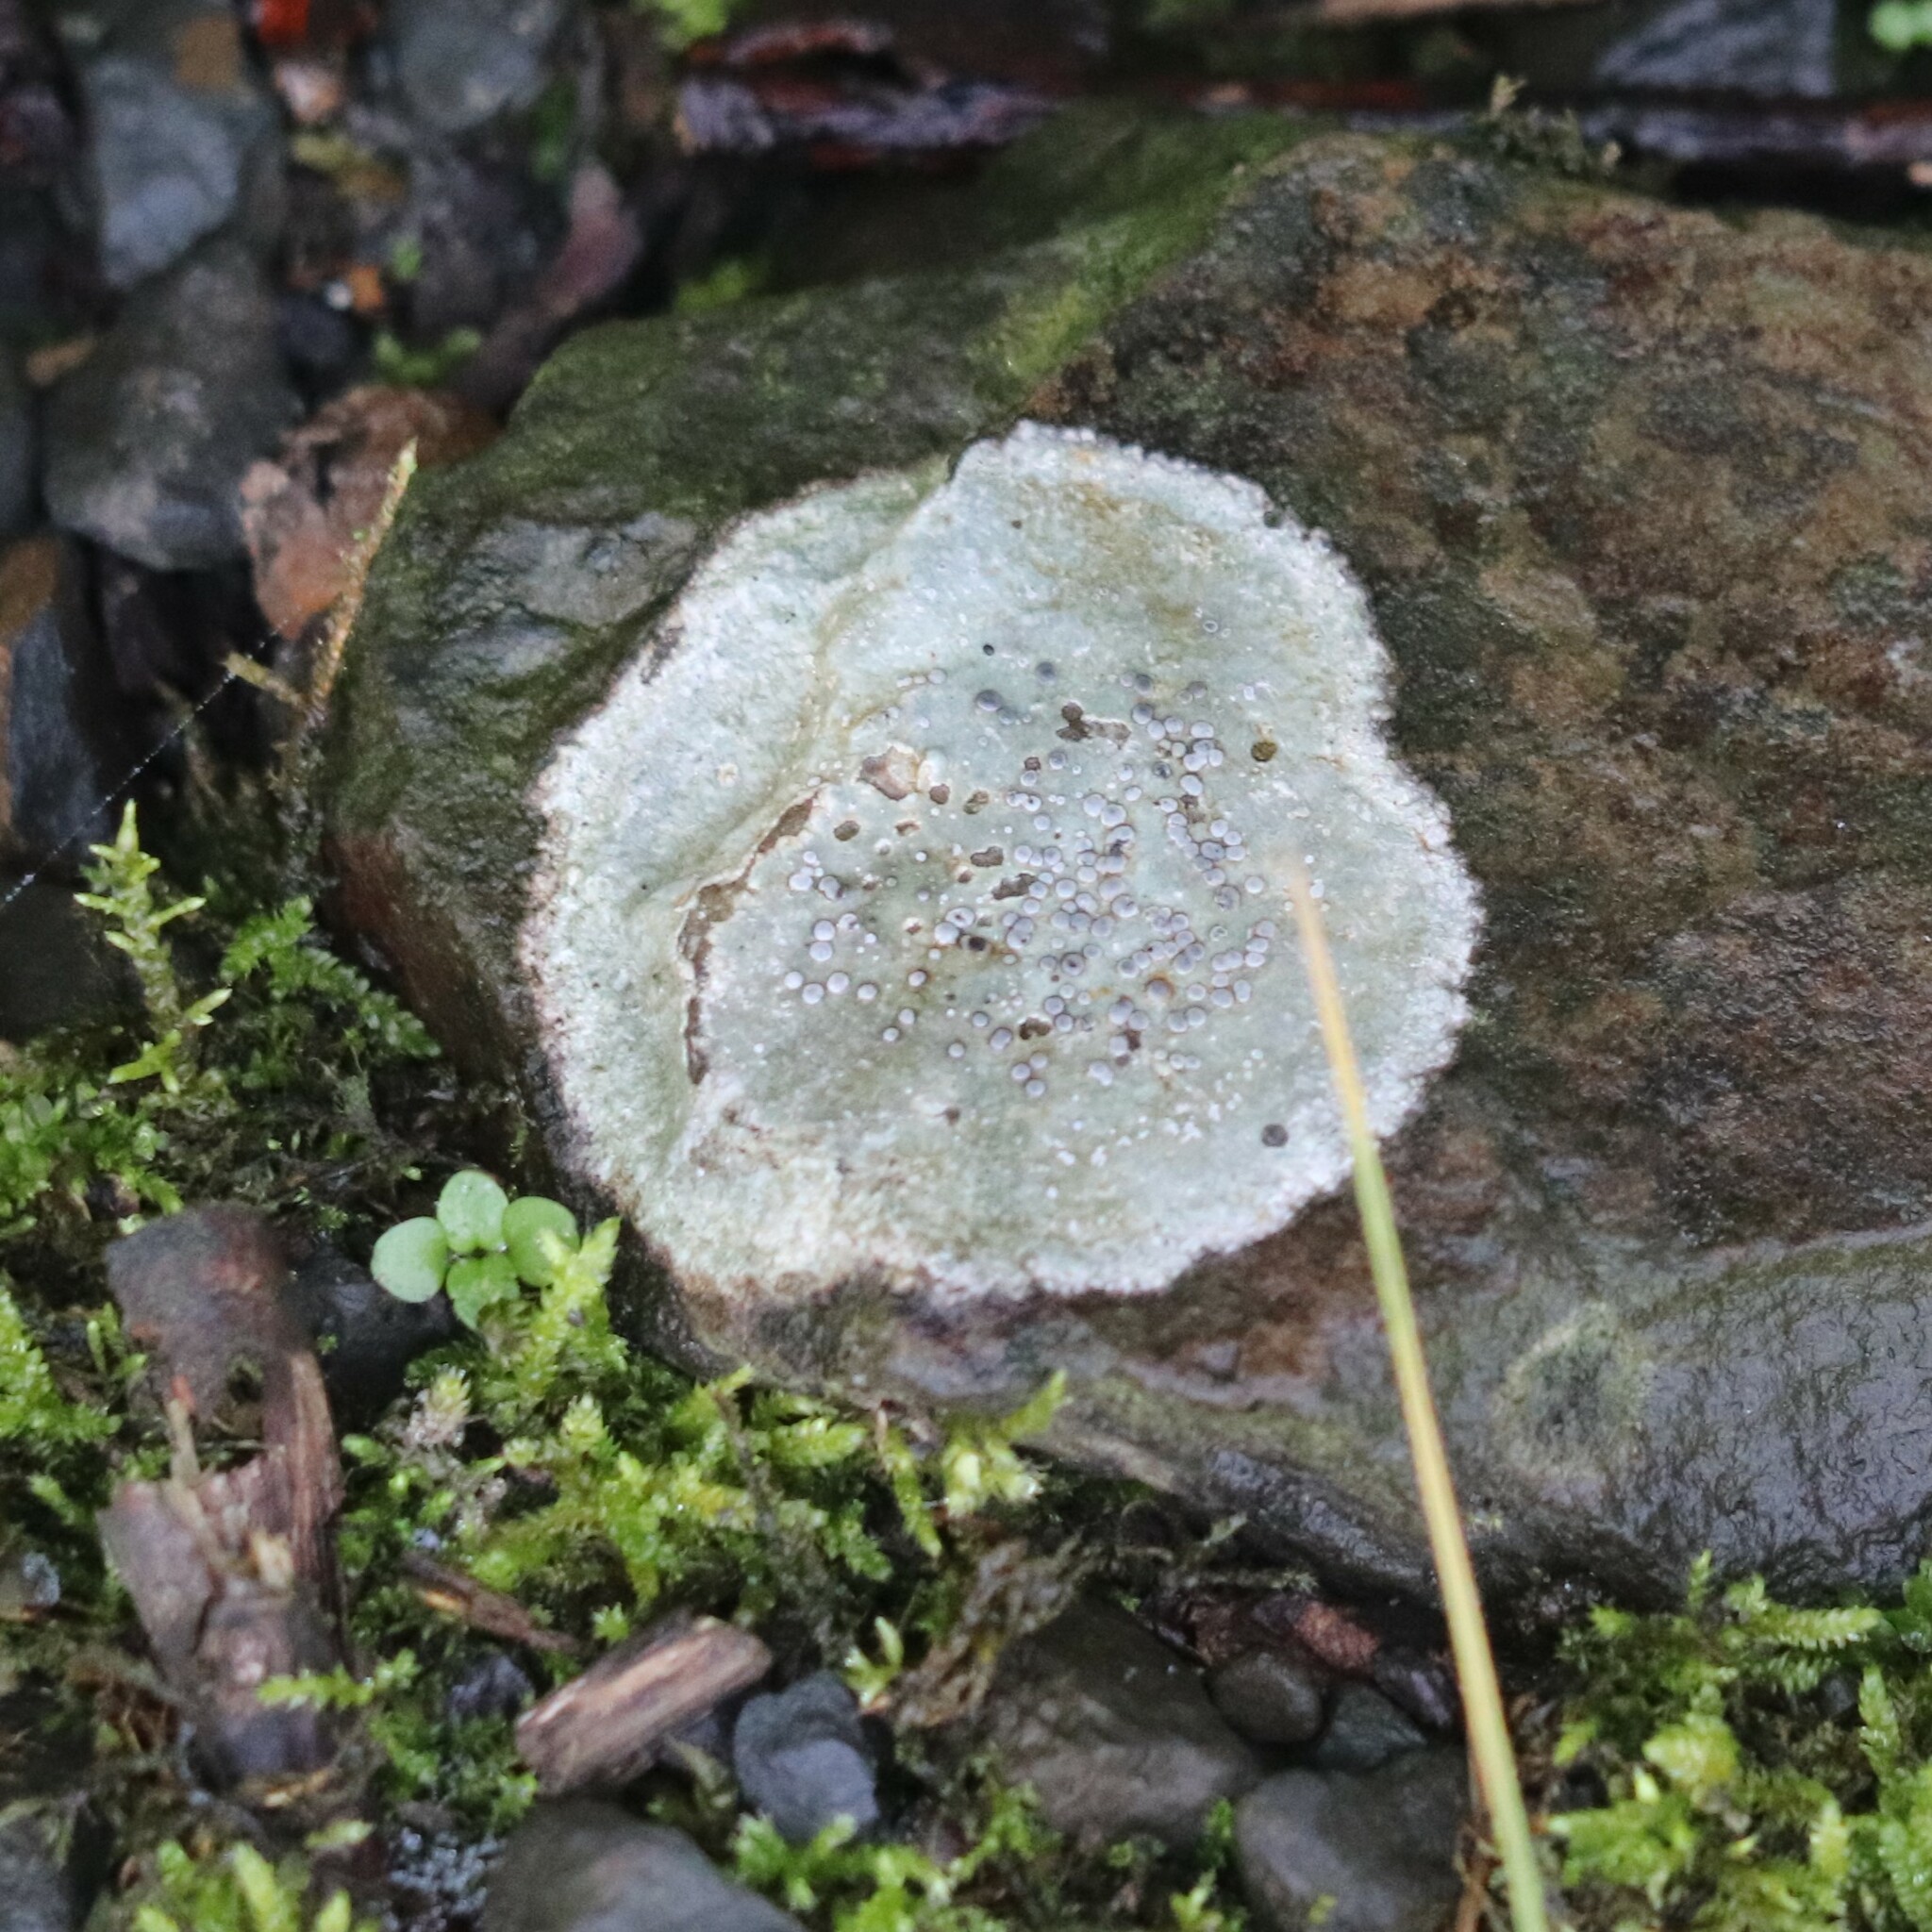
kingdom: Fungi
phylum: Ascomycota
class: Lecanoromycetes
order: Lecideales
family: Lecideaceae
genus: Porpidia
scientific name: Porpidia albocaerulescens
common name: Smokey-eyed boulder lichen
